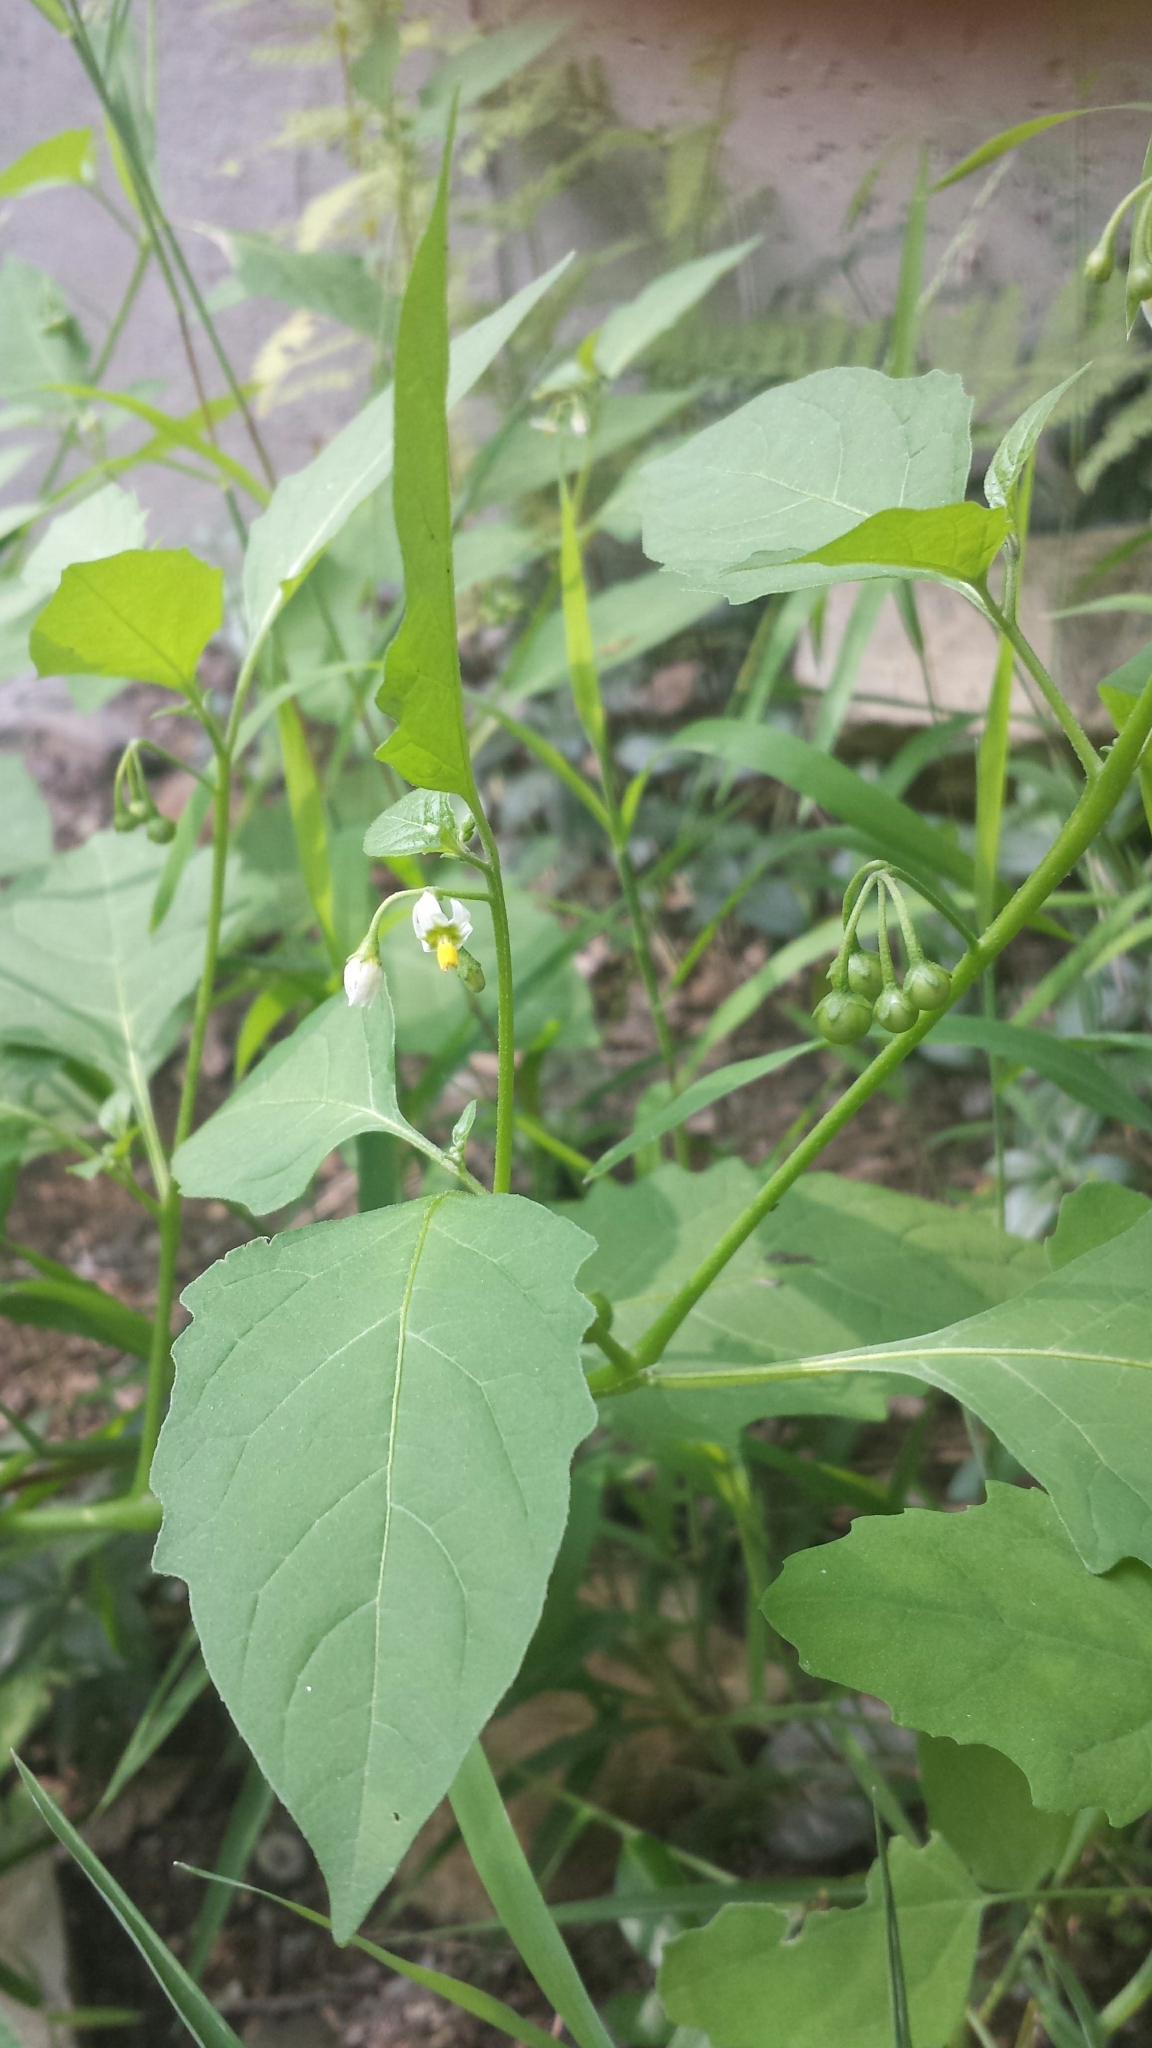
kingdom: Plantae
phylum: Tracheophyta
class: Magnoliopsida
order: Solanales
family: Solanaceae
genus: Solanum
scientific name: Solanum emulans
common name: Eastern black nightshade
